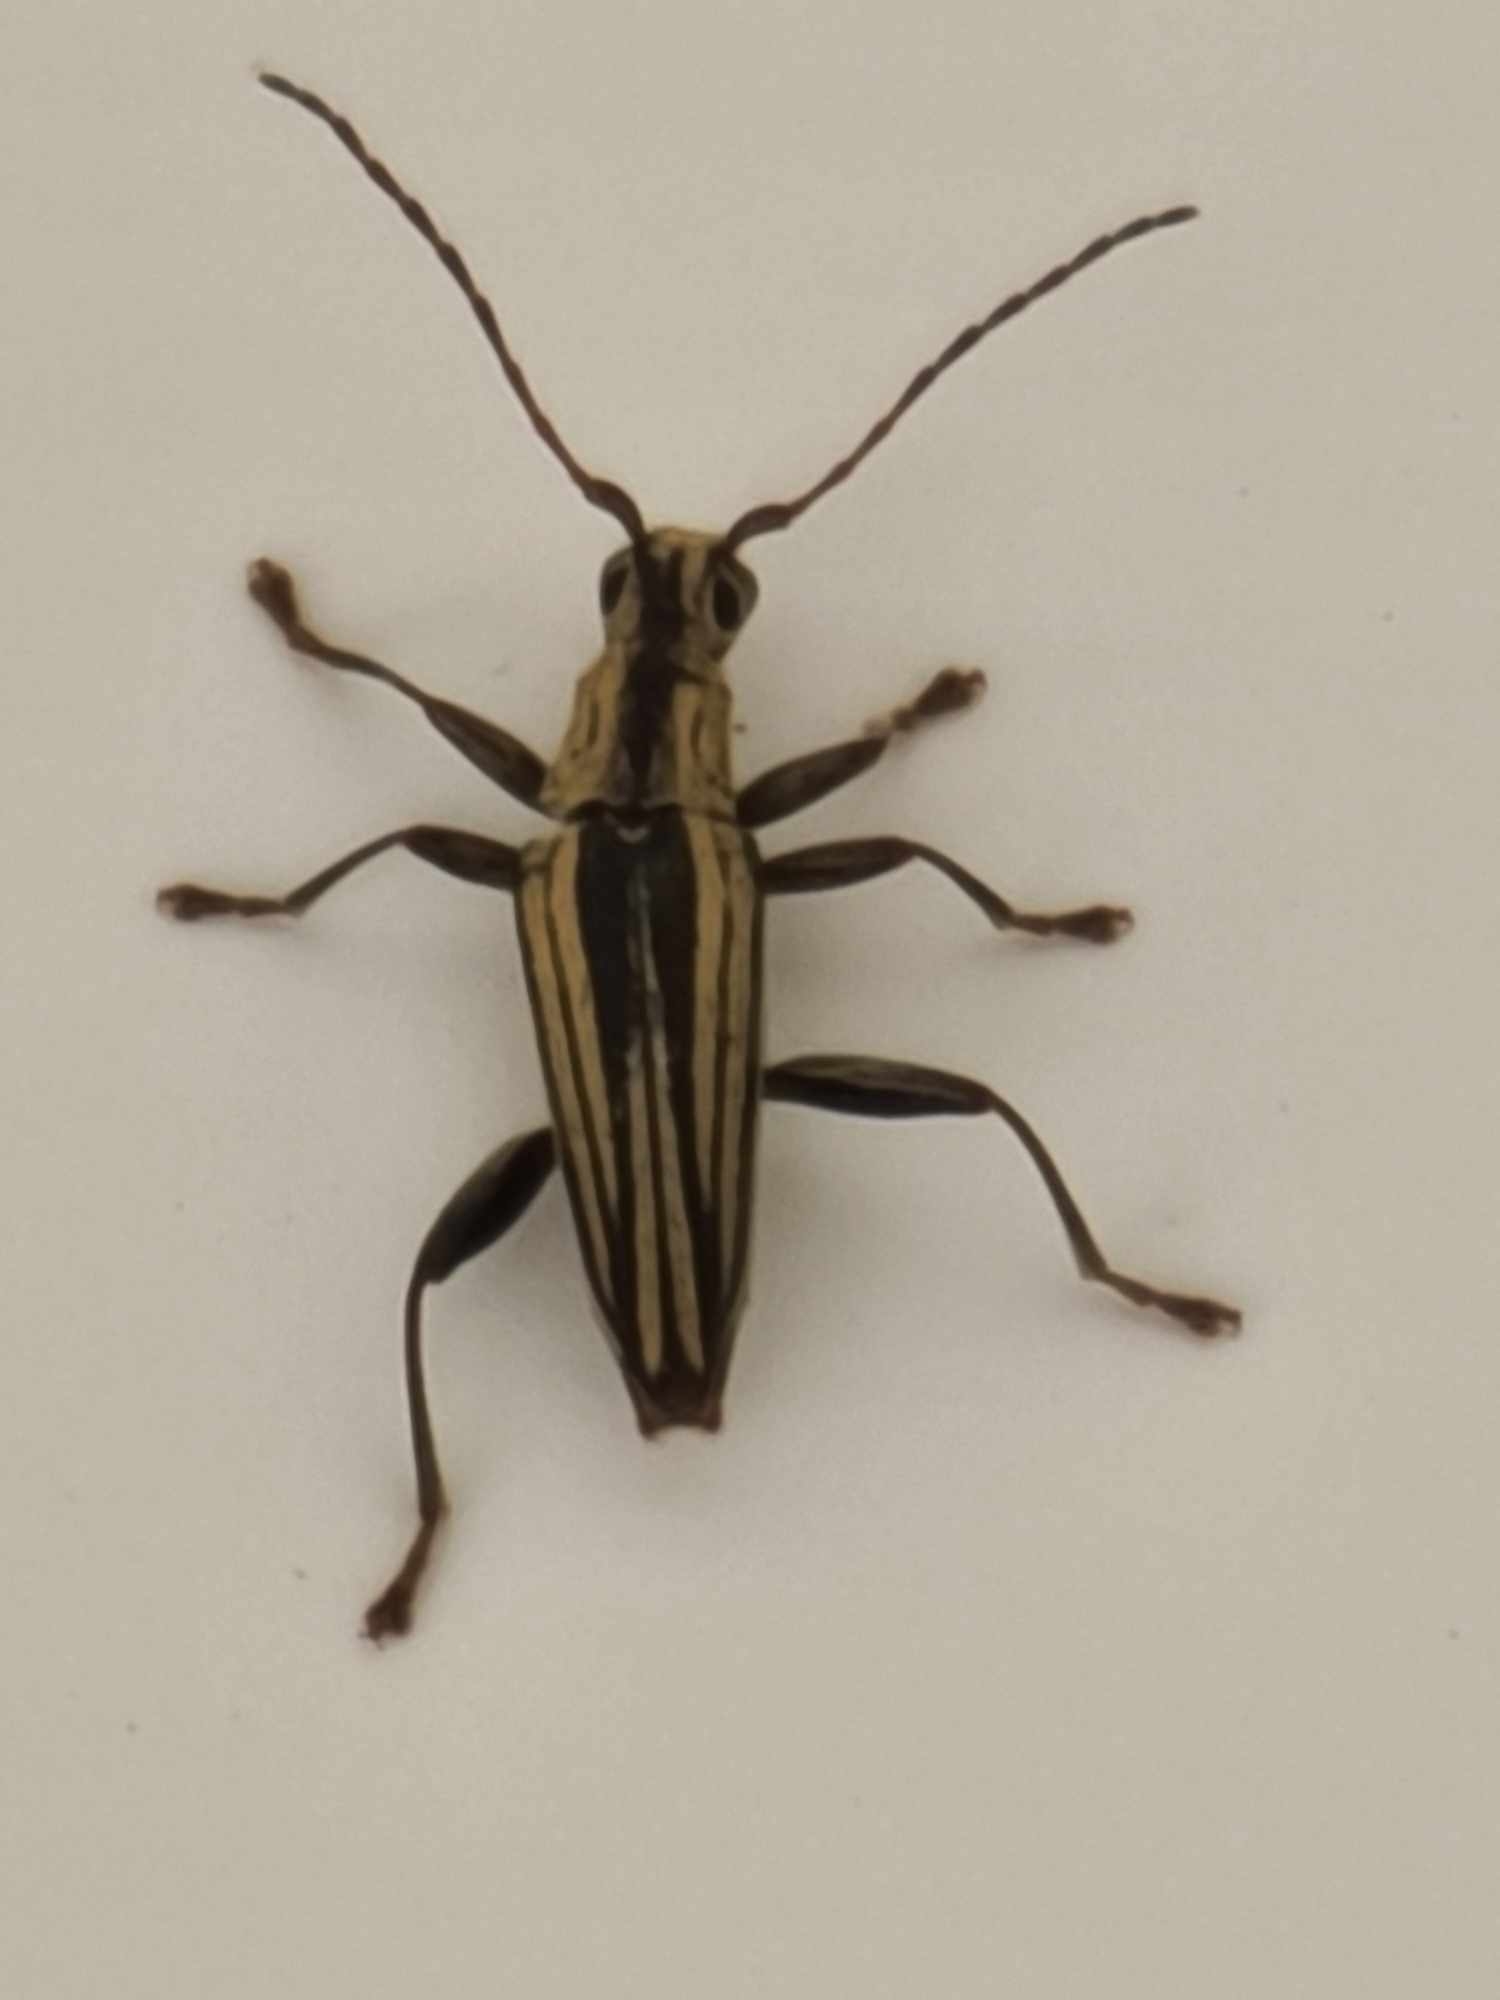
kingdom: Animalia
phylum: Arthropoda
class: Insecta
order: Coleoptera
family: Cerambycidae
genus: Coptomma
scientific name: Coptomma sulcatum
